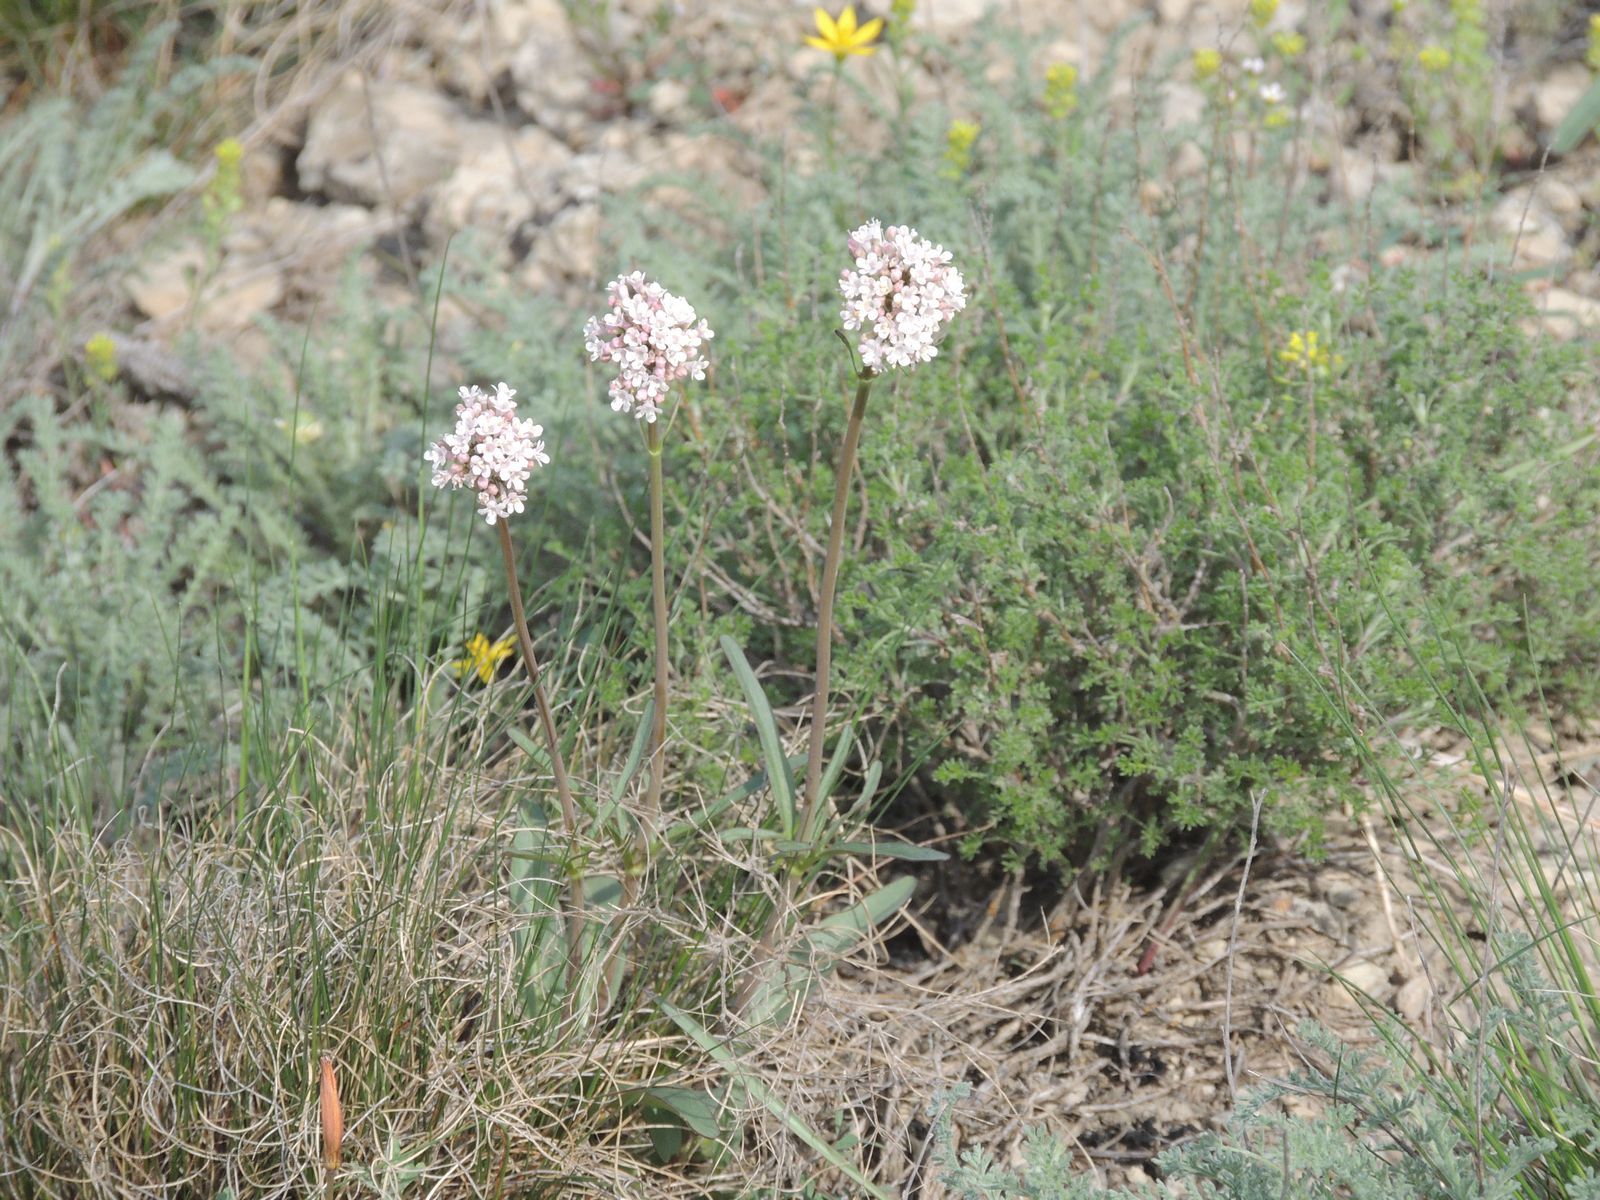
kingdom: Plantae
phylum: Tracheophyta
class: Magnoliopsida
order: Dipsacales
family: Caprifoliaceae
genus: Valeriana
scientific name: Valeriana tuberosa
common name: Tuberous valerian
